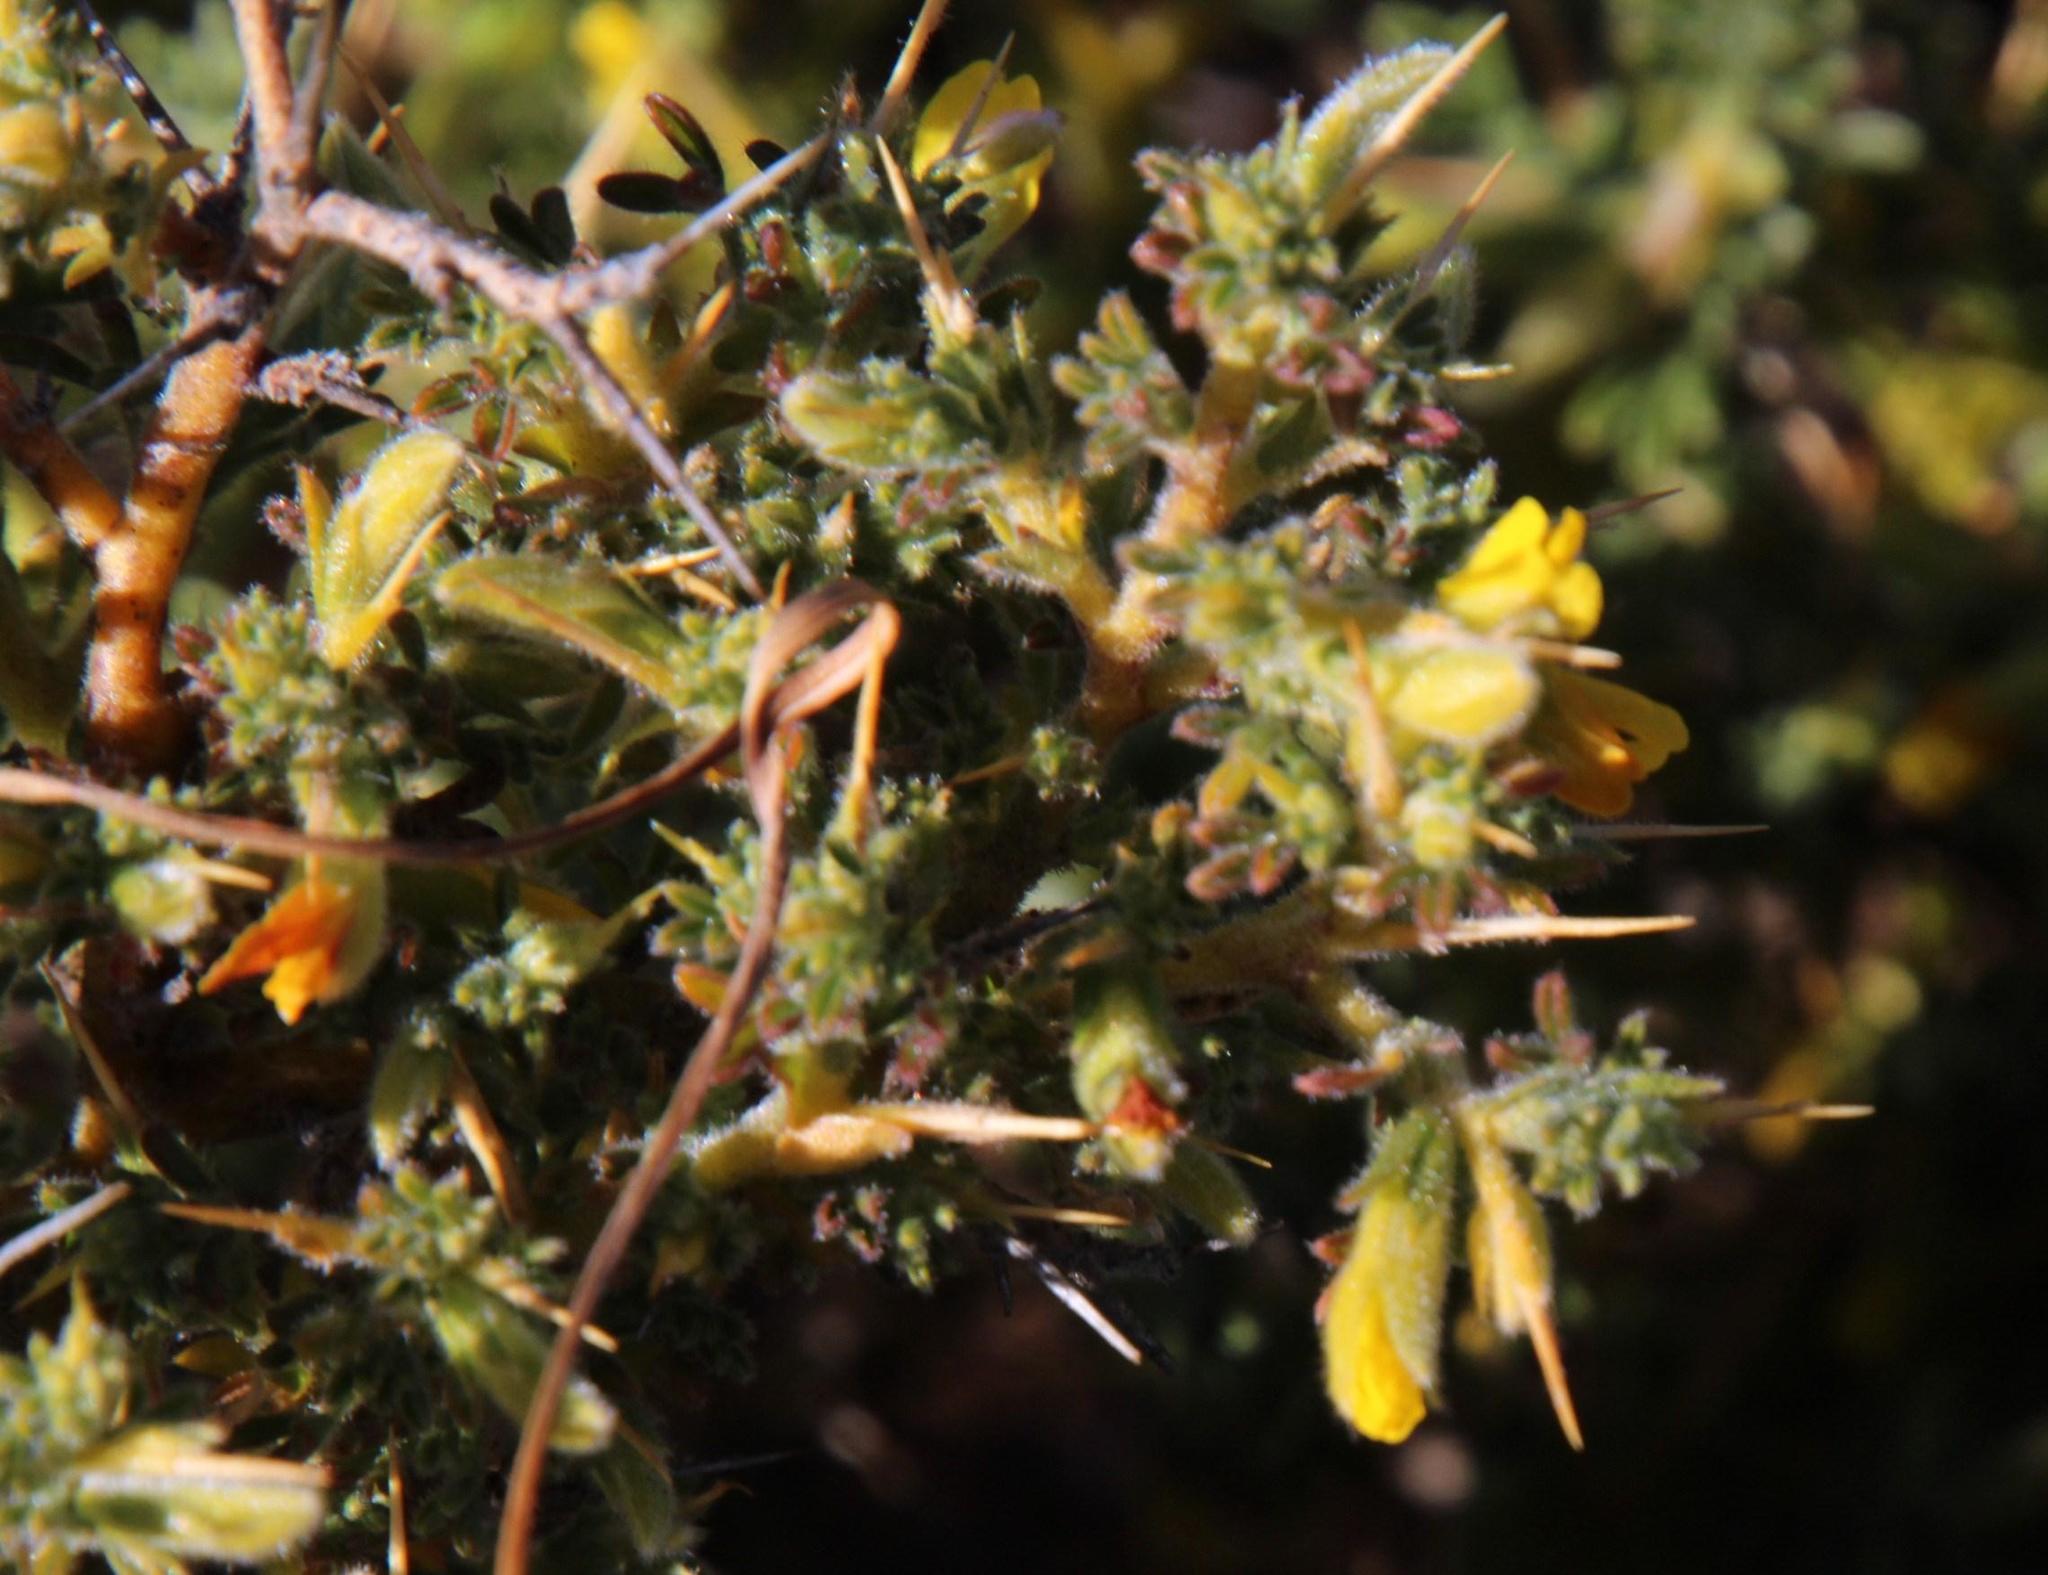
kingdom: Plantae
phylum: Tracheophyta
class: Magnoliopsida
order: Fabales
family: Fabaceae
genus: Melolobium
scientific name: Melolobium microphyllum
